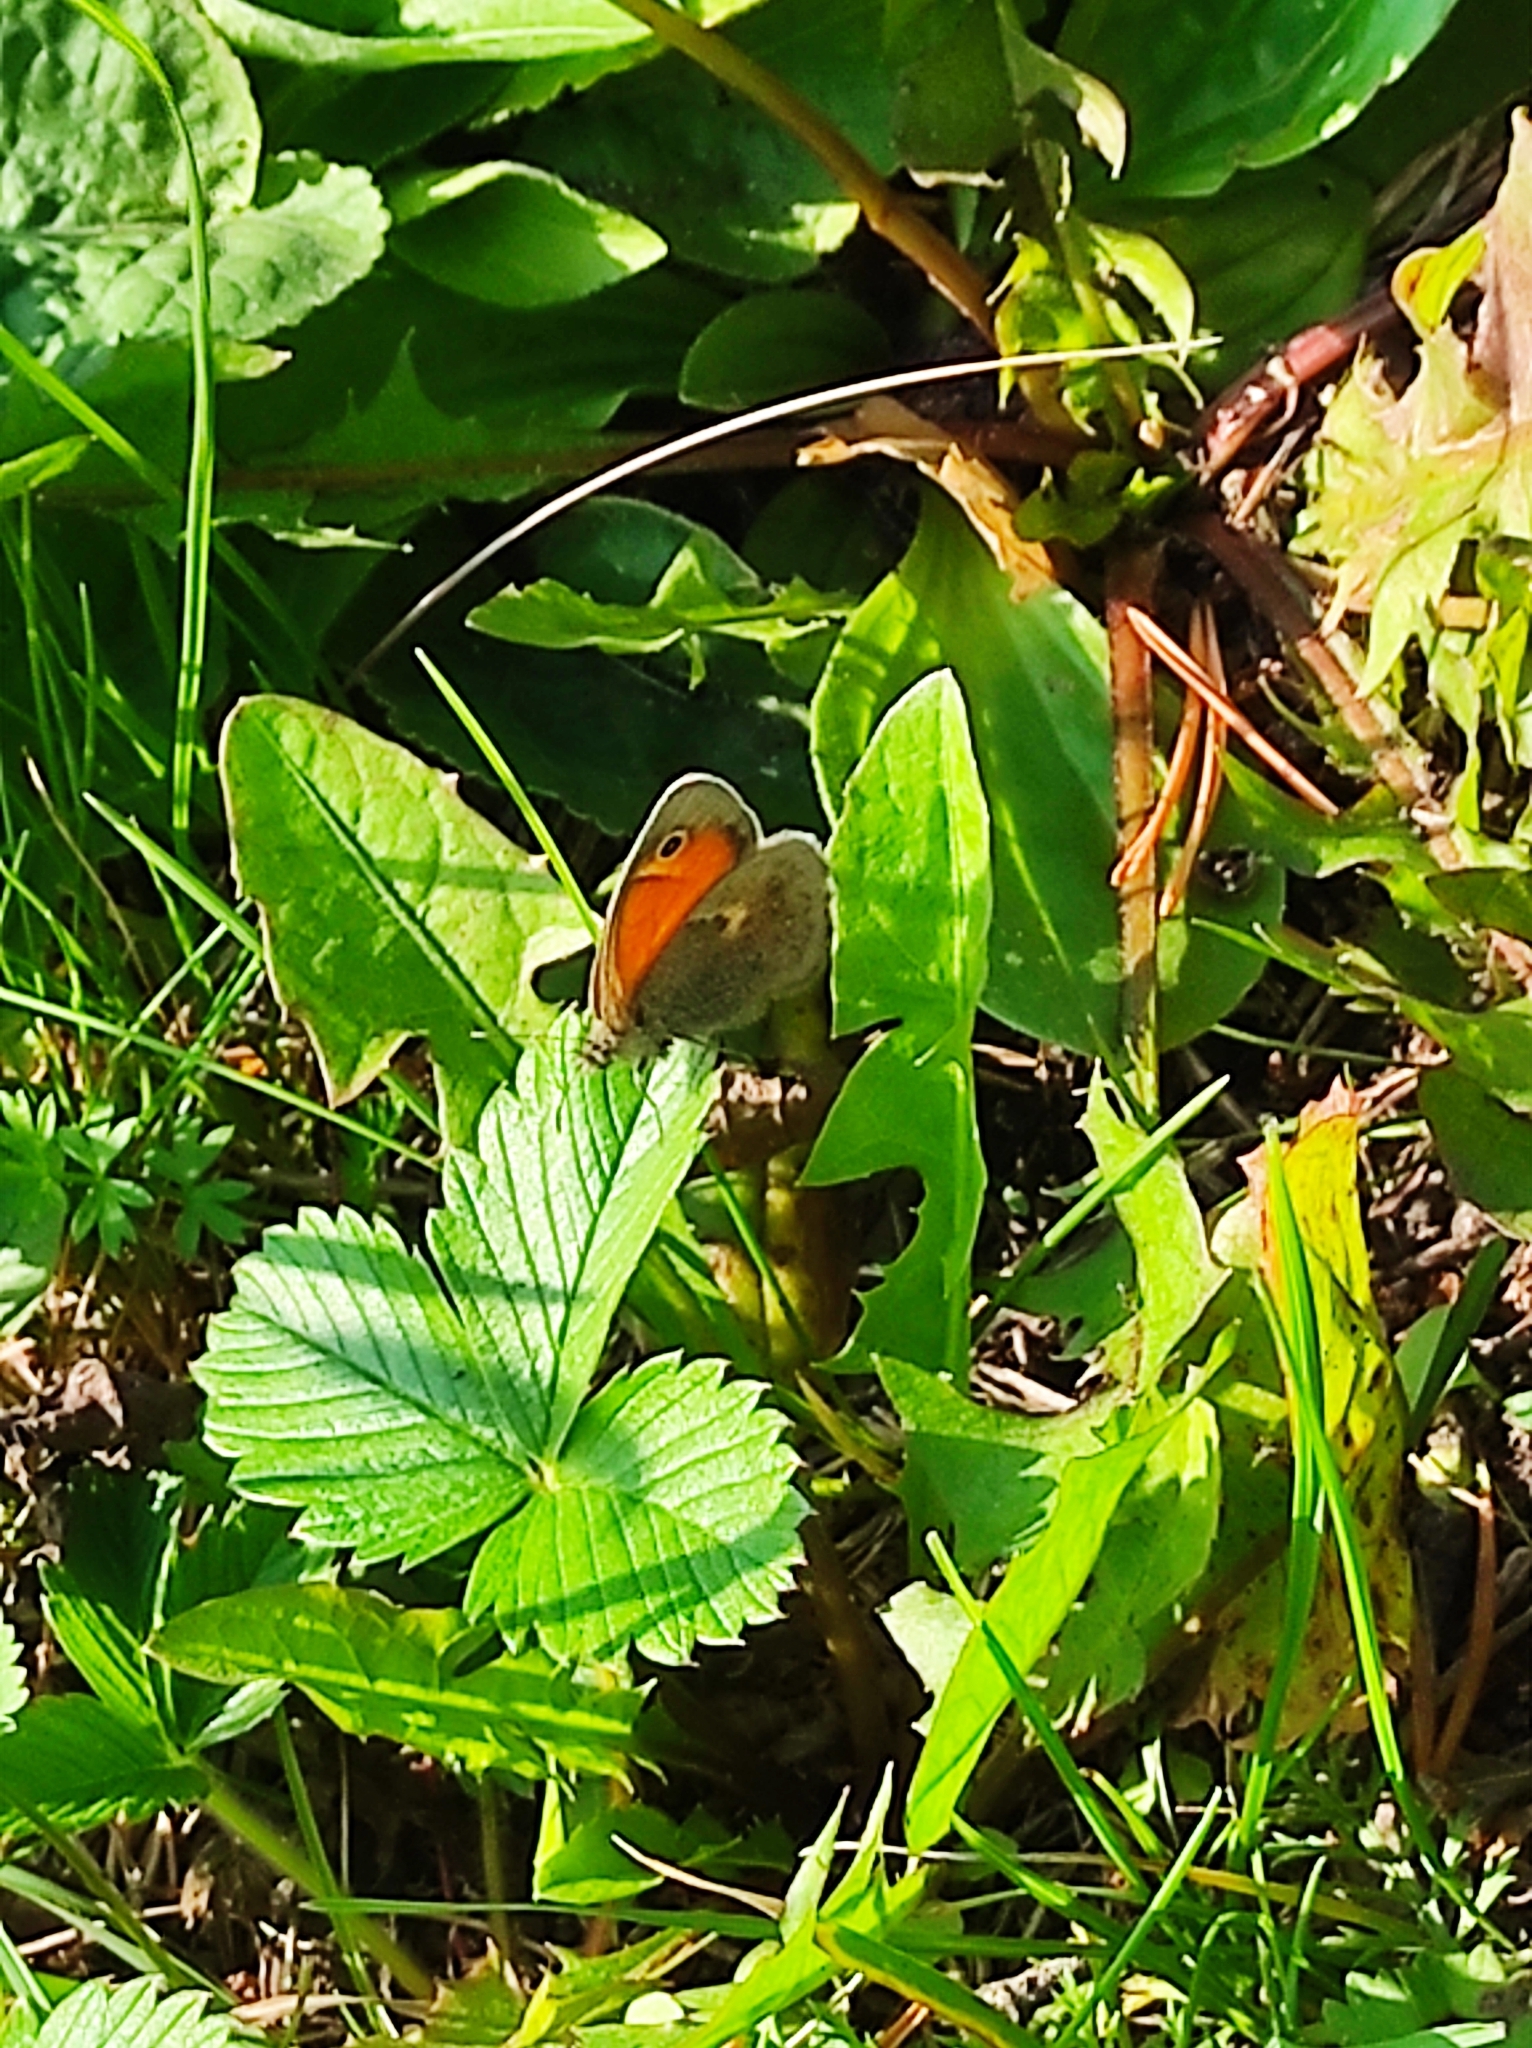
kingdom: Animalia
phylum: Arthropoda
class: Insecta
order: Lepidoptera
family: Nymphalidae
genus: Coenonympha
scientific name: Coenonympha pamphilus
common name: Small heath
